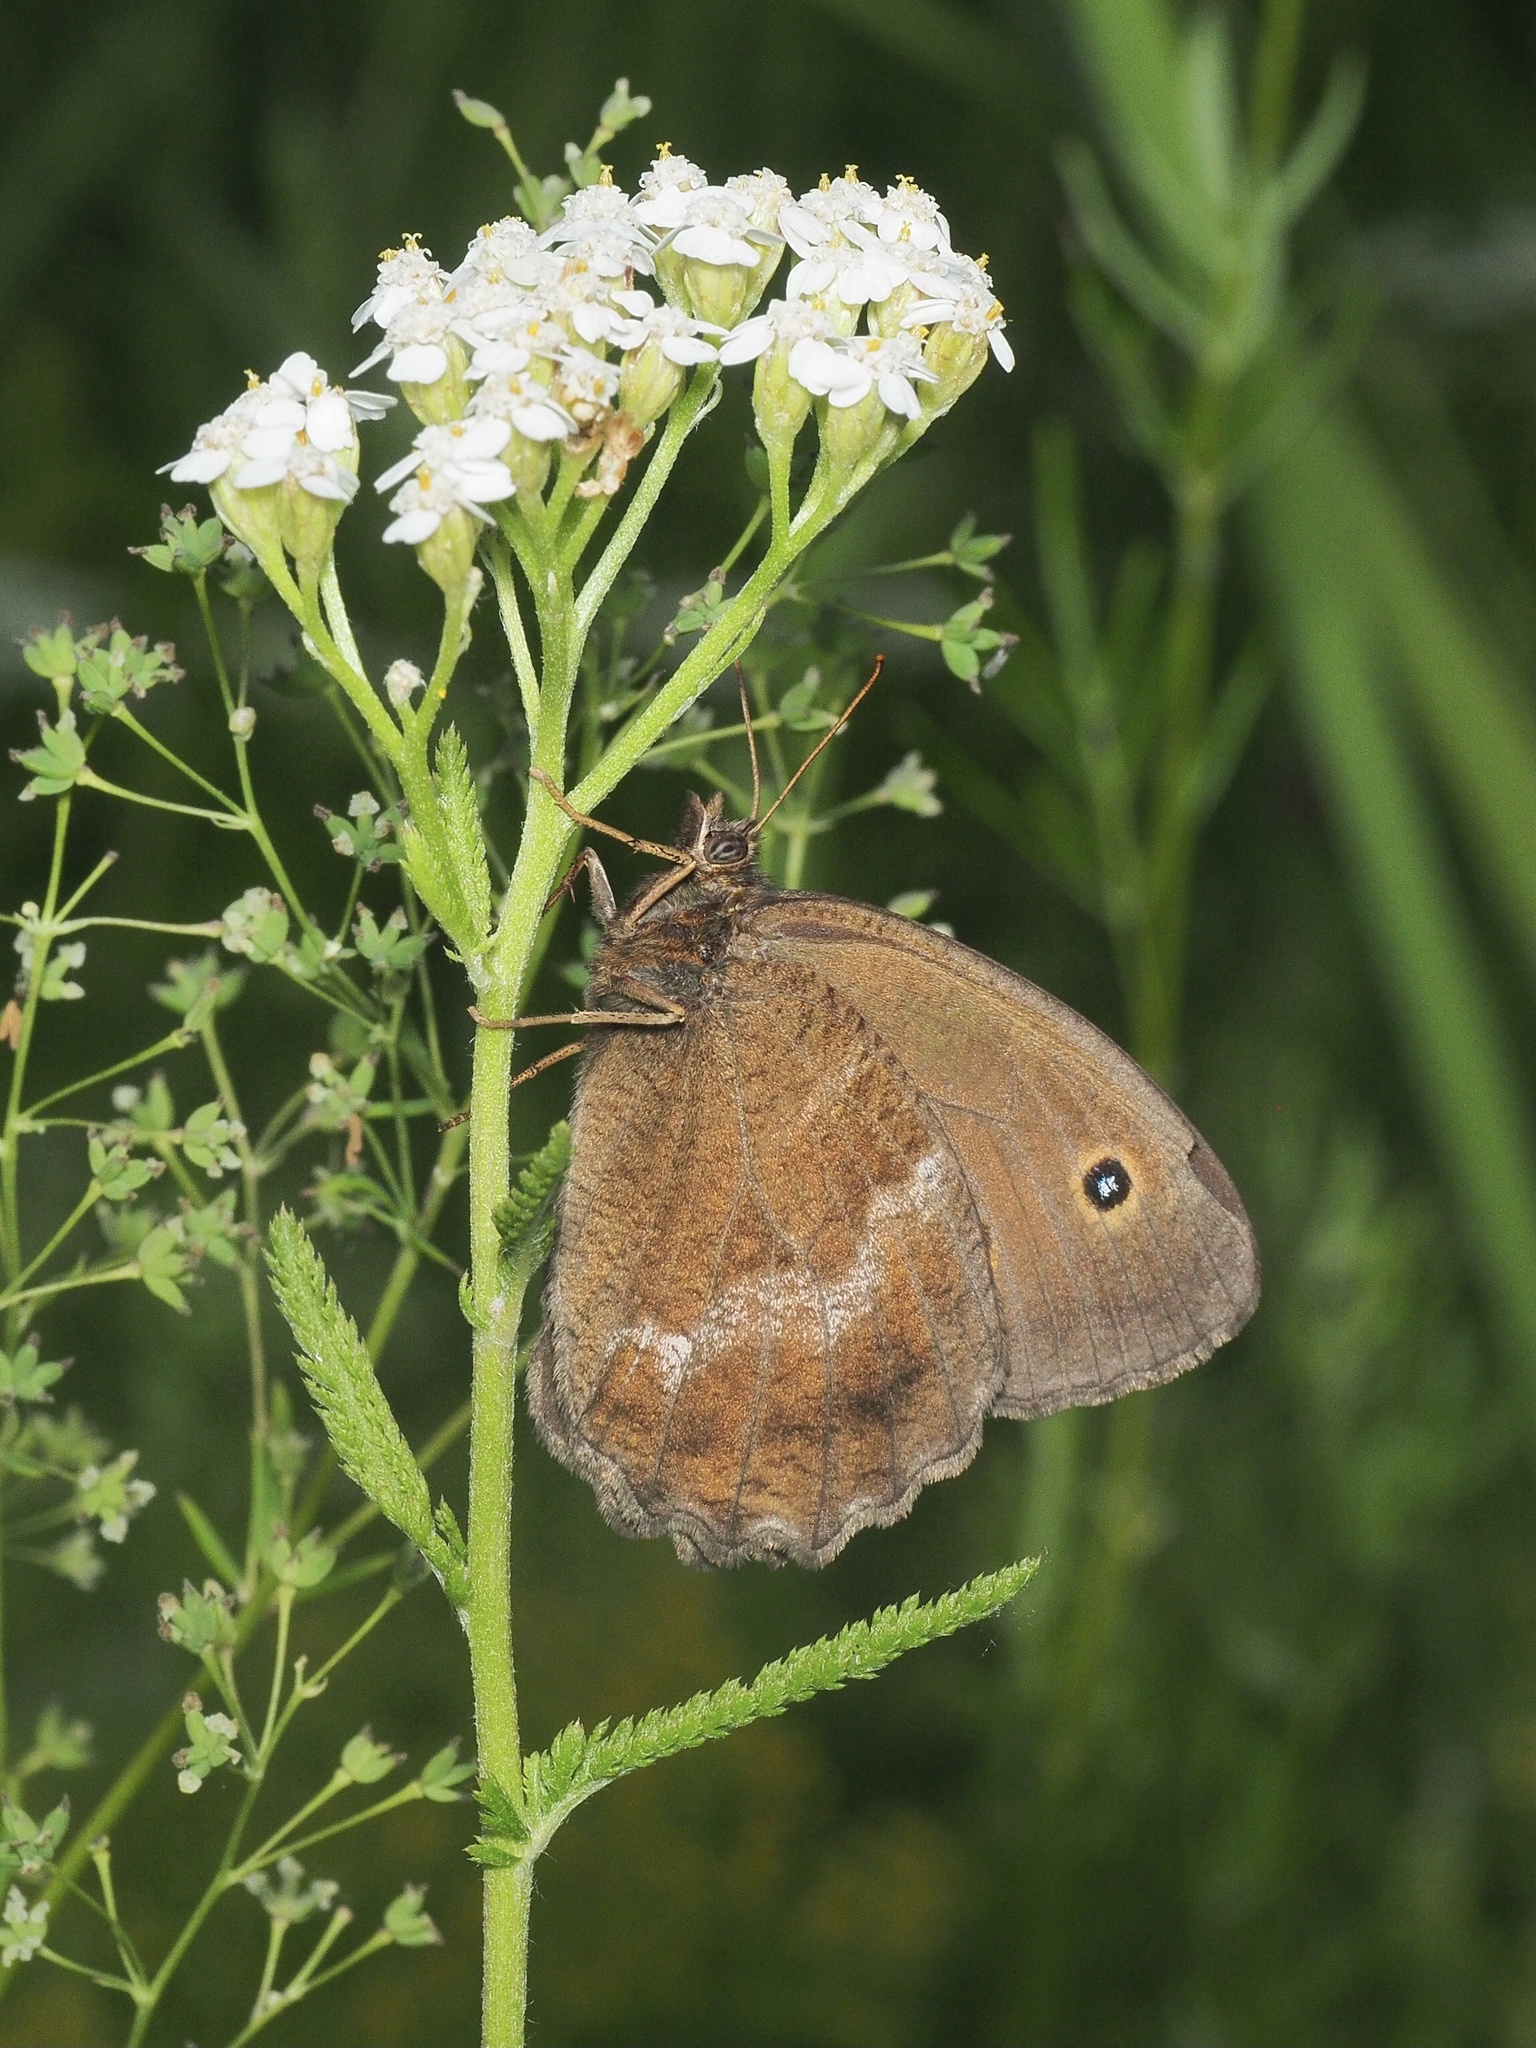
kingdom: Animalia
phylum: Arthropoda
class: Insecta
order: Lepidoptera
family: Nymphalidae
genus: Minois
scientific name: Minois dryas
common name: Dryad
